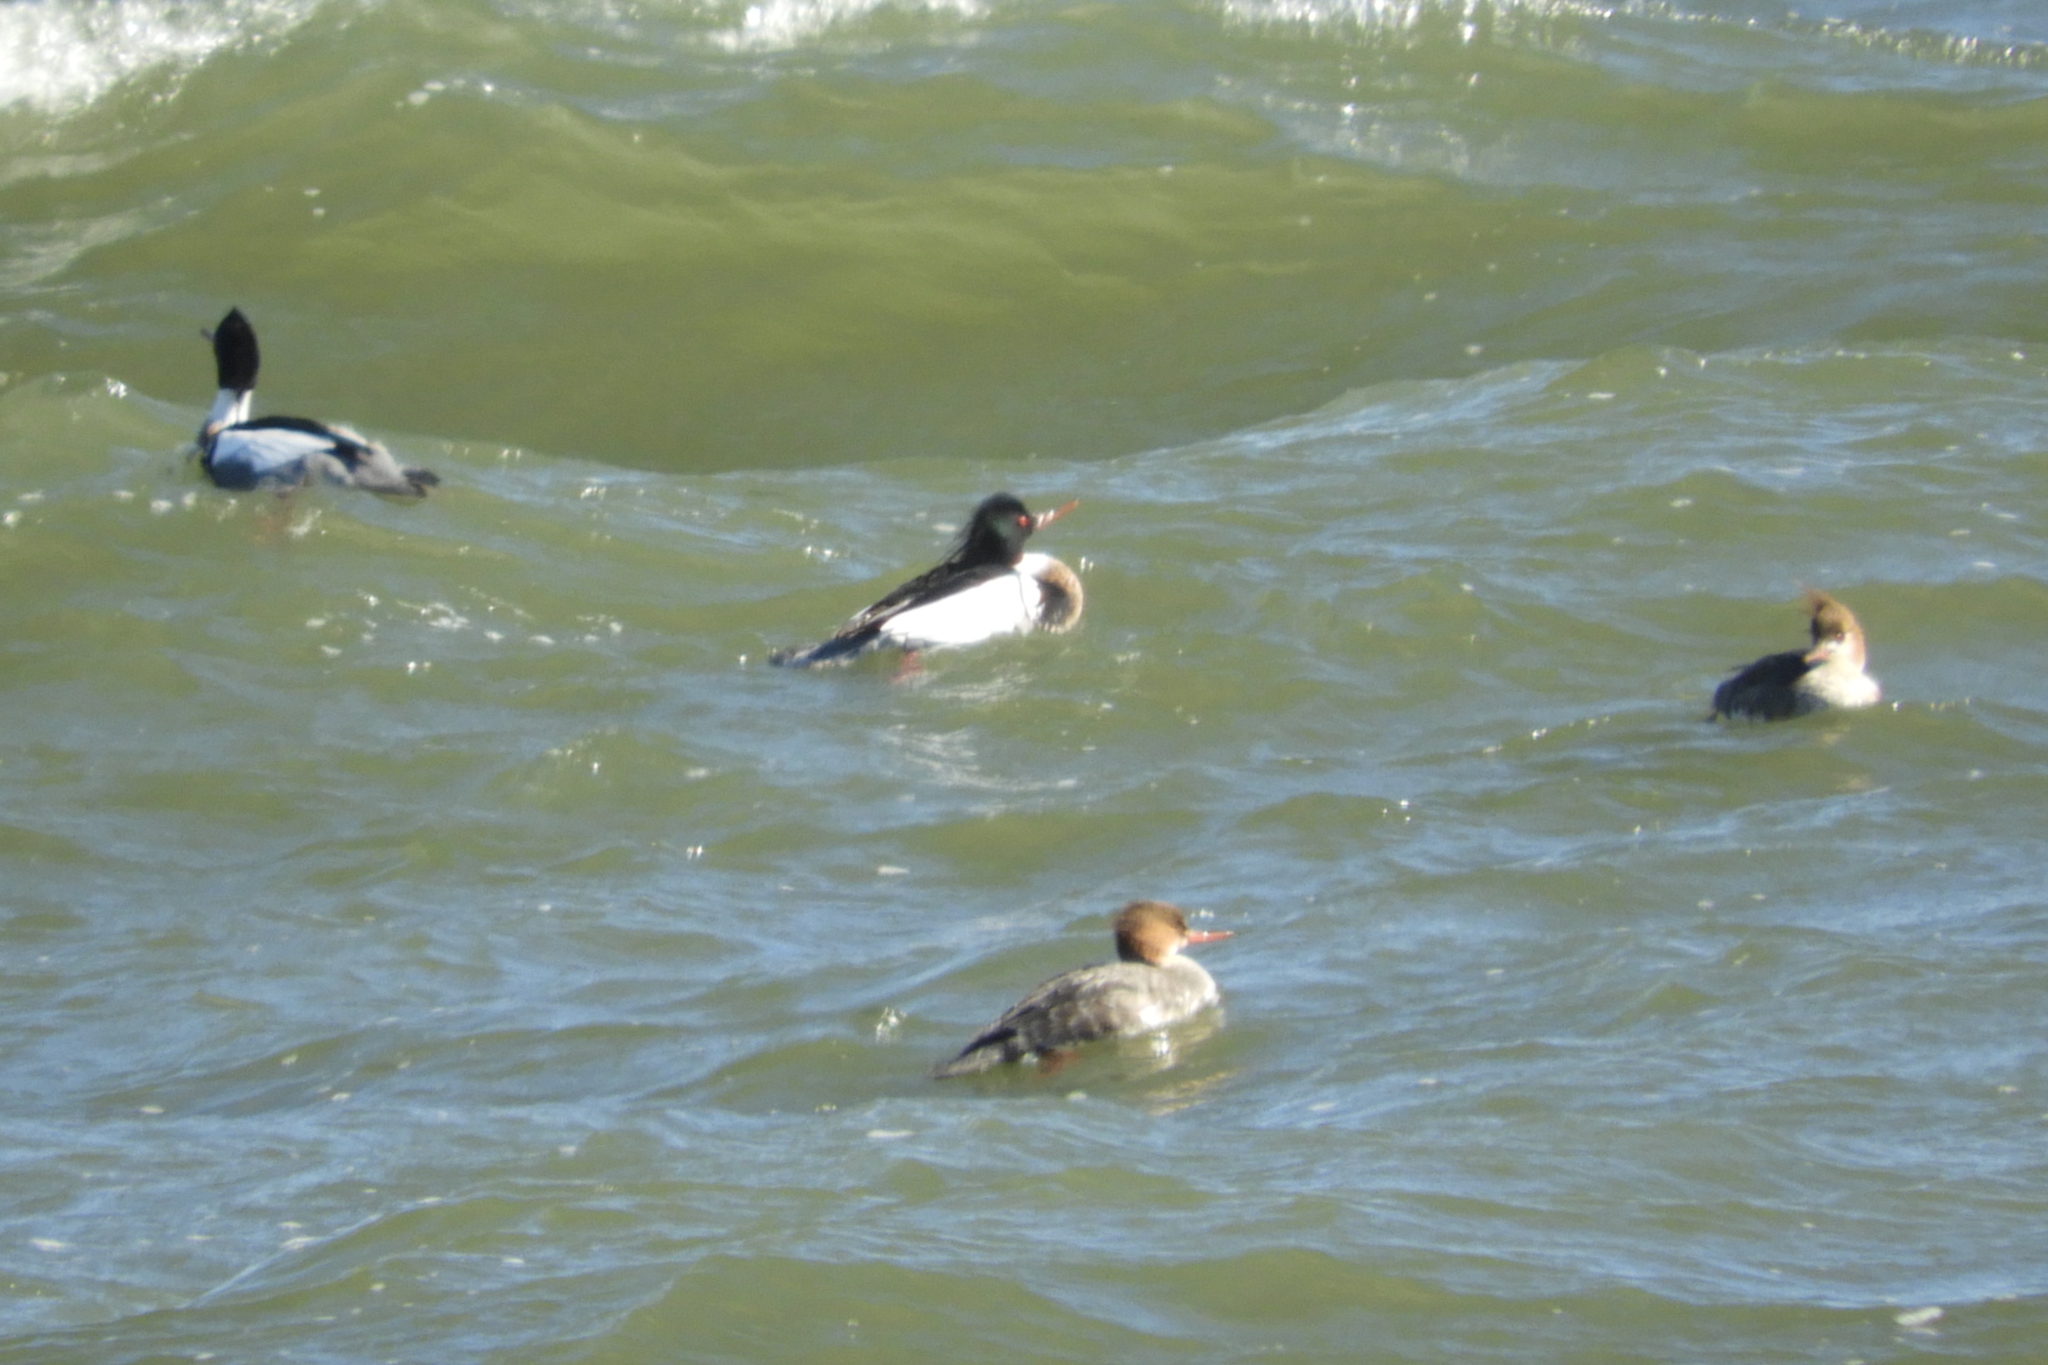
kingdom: Animalia
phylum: Chordata
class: Aves
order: Anseriformes
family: Anatidae
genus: Mergus
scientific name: Mergus serrator
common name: Red-breasted merganser
